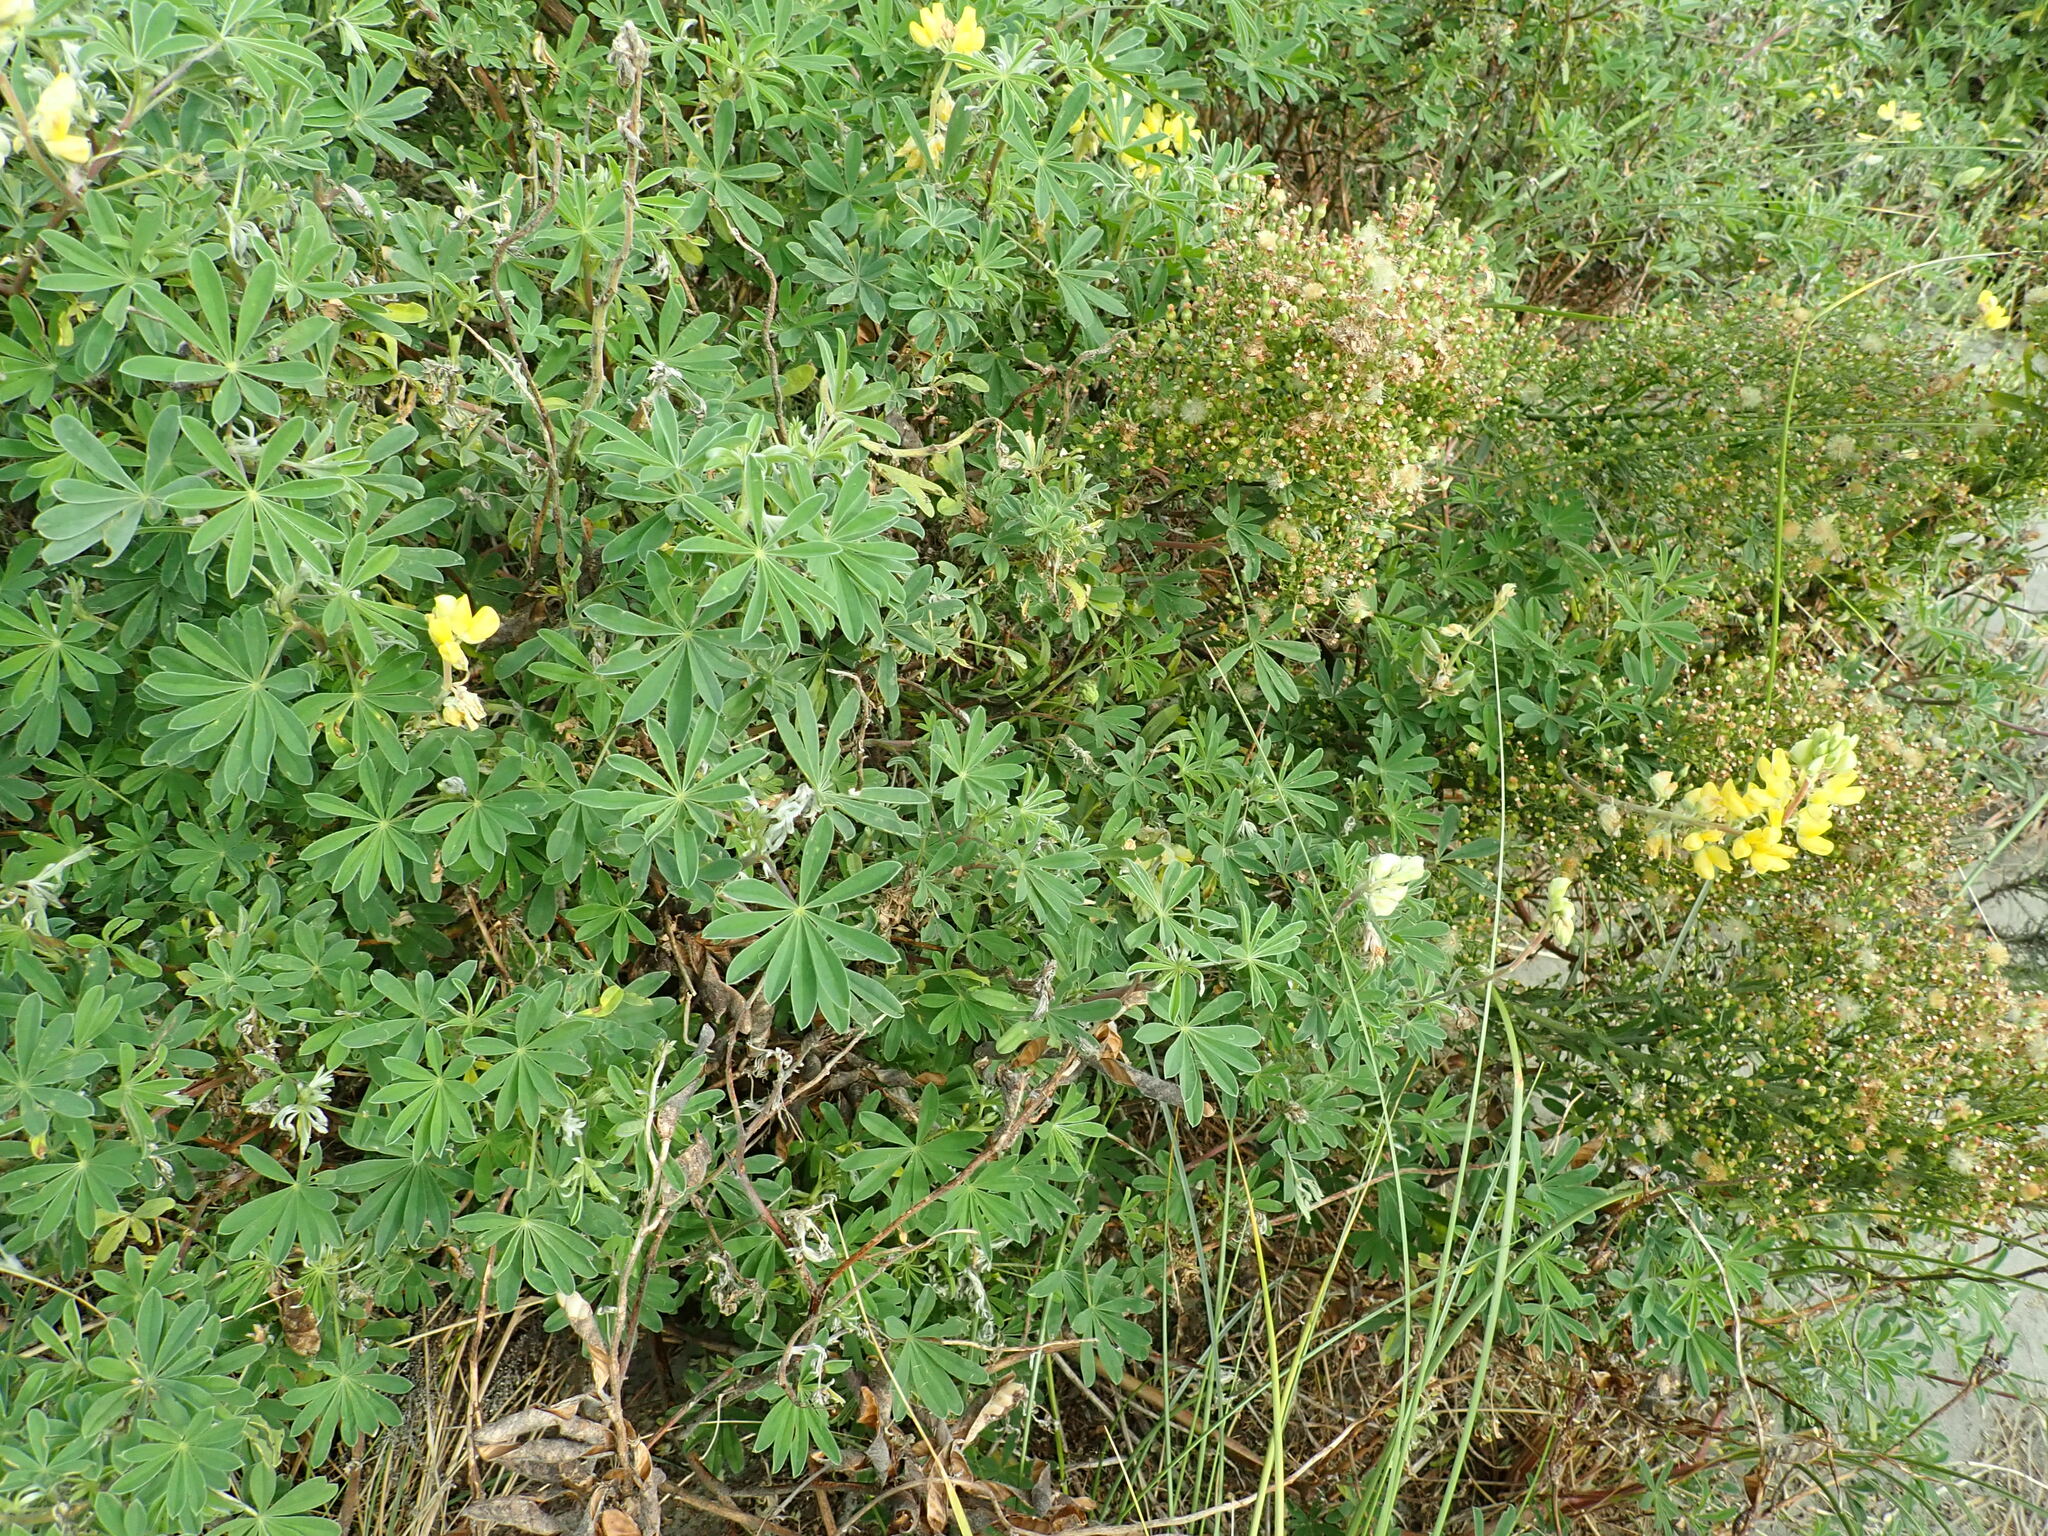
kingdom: Plantae
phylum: Tracheophyta
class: Magnoliopsida
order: Fabales
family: Fabaceae
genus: Lupinus
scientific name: Lupinus arboreus
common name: Yellow bush lupine
